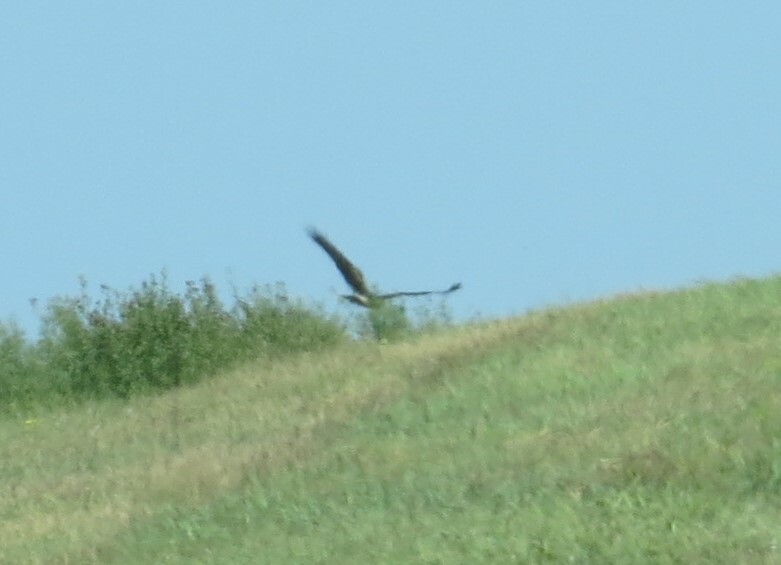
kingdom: Animalia
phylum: Chordata
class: Aves
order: Accipitriformes
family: Accipitridae
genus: Circus
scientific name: Circus cyaneus
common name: Hen harrier
